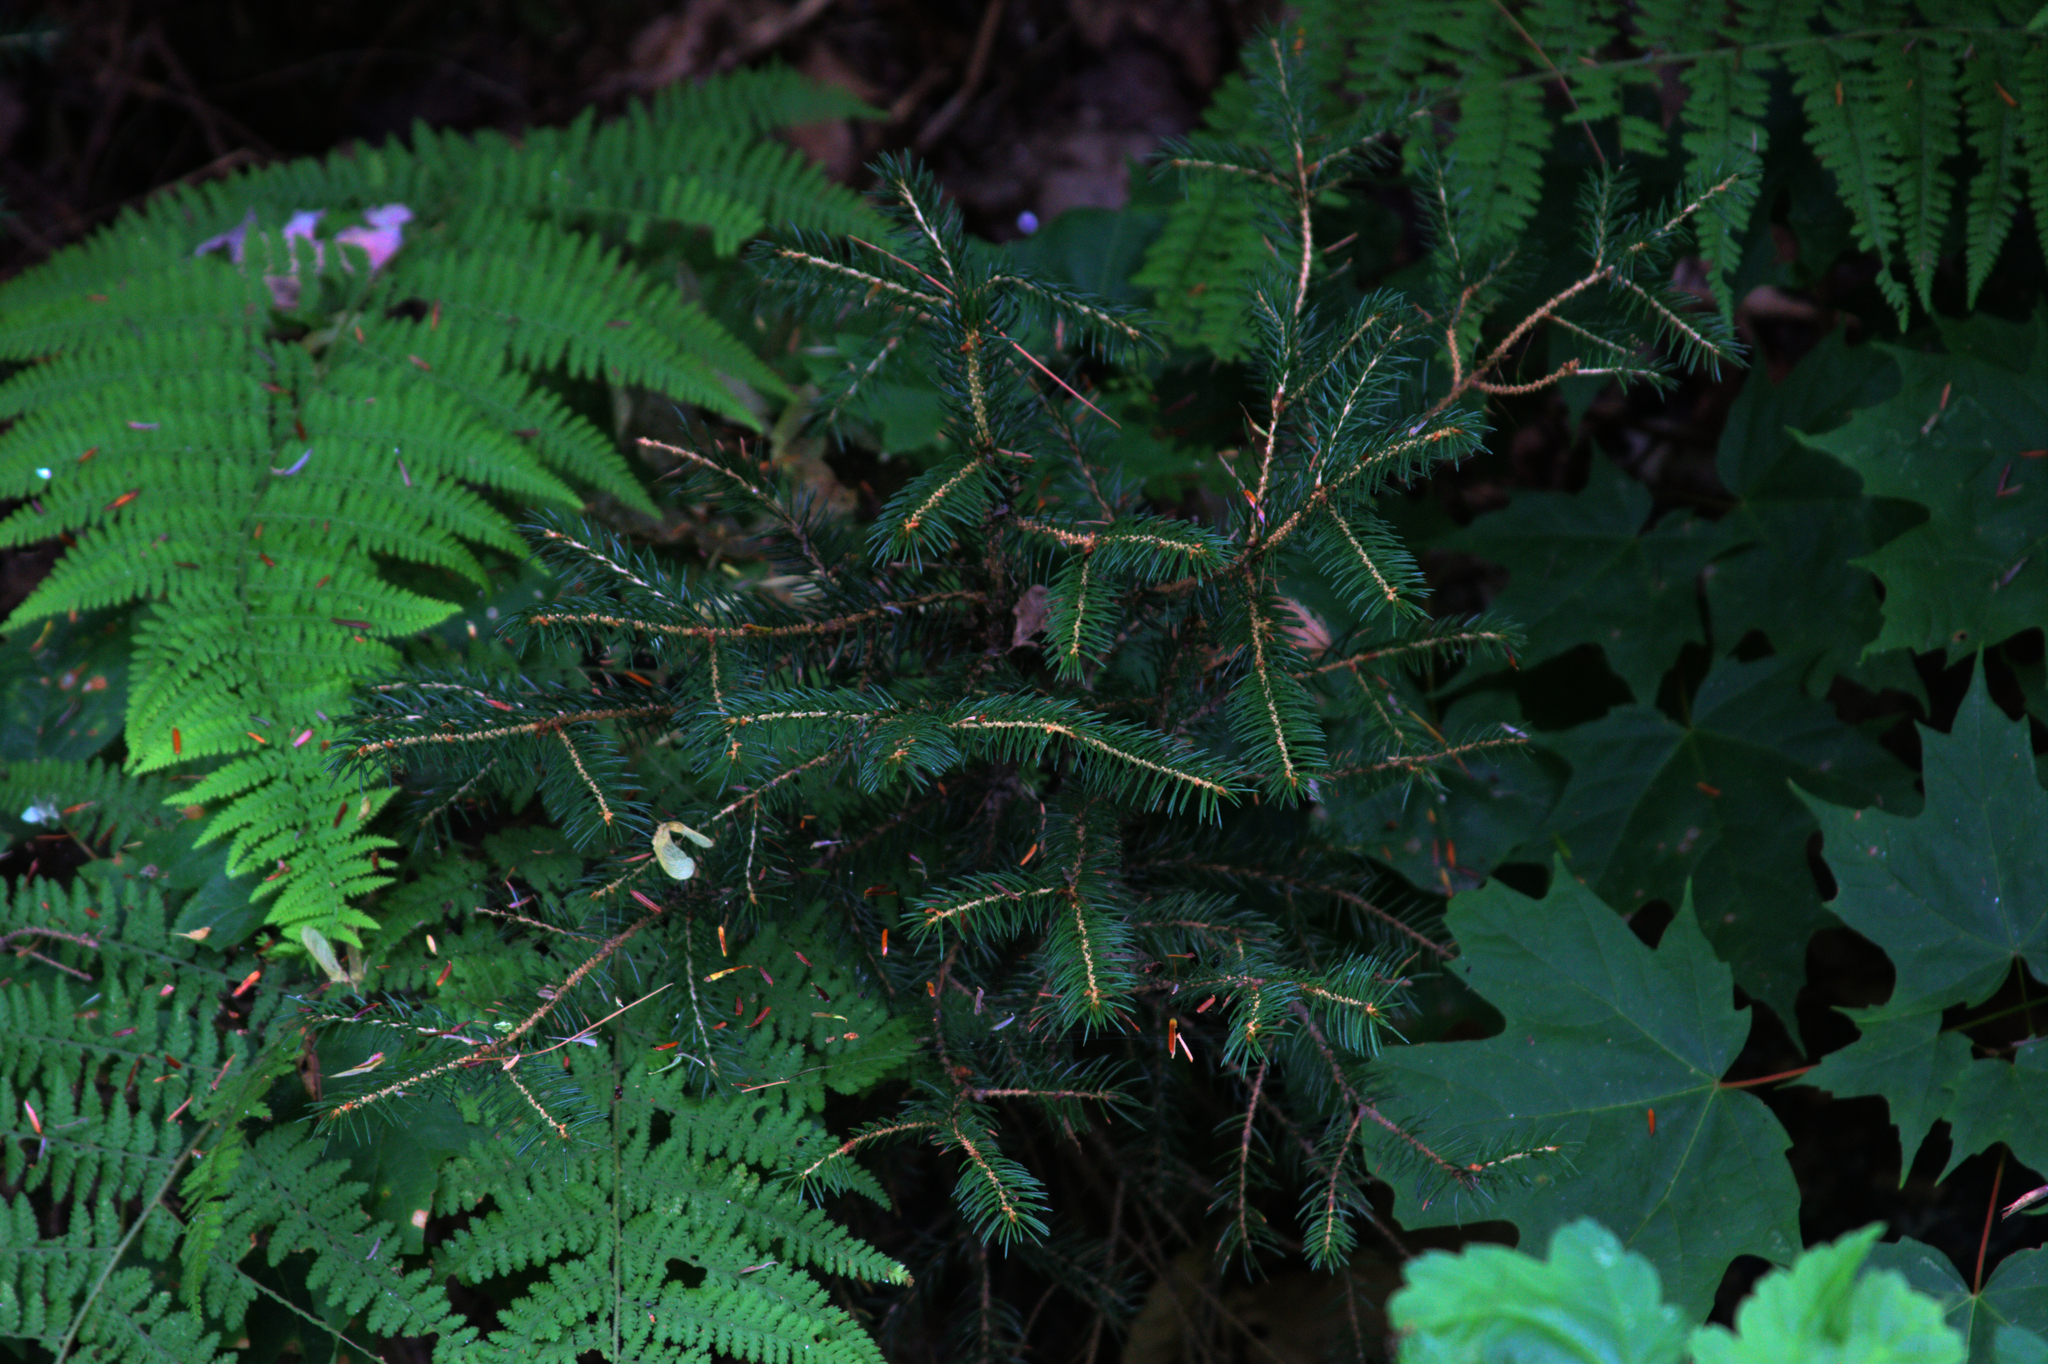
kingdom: Plantae
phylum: Tracheophyta
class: Magnoliopsida
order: Sapindales
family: Sapindaceae
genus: Acer
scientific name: Acer saccharum
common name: Sugar maple
